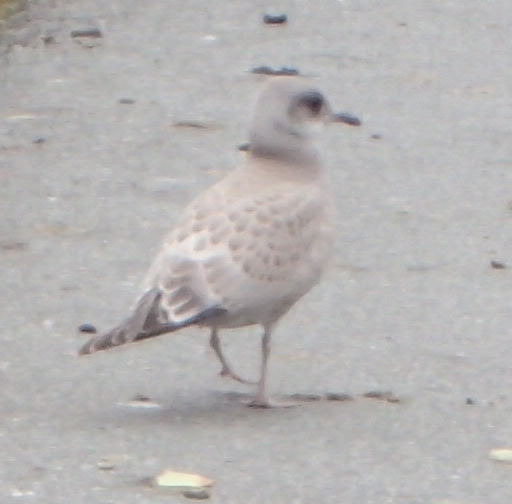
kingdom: Animalia
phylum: Chordata
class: Aves
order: Charadriiformes
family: Laridae
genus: Larus
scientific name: Larus brachyrhynchus
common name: Short-billed gull
